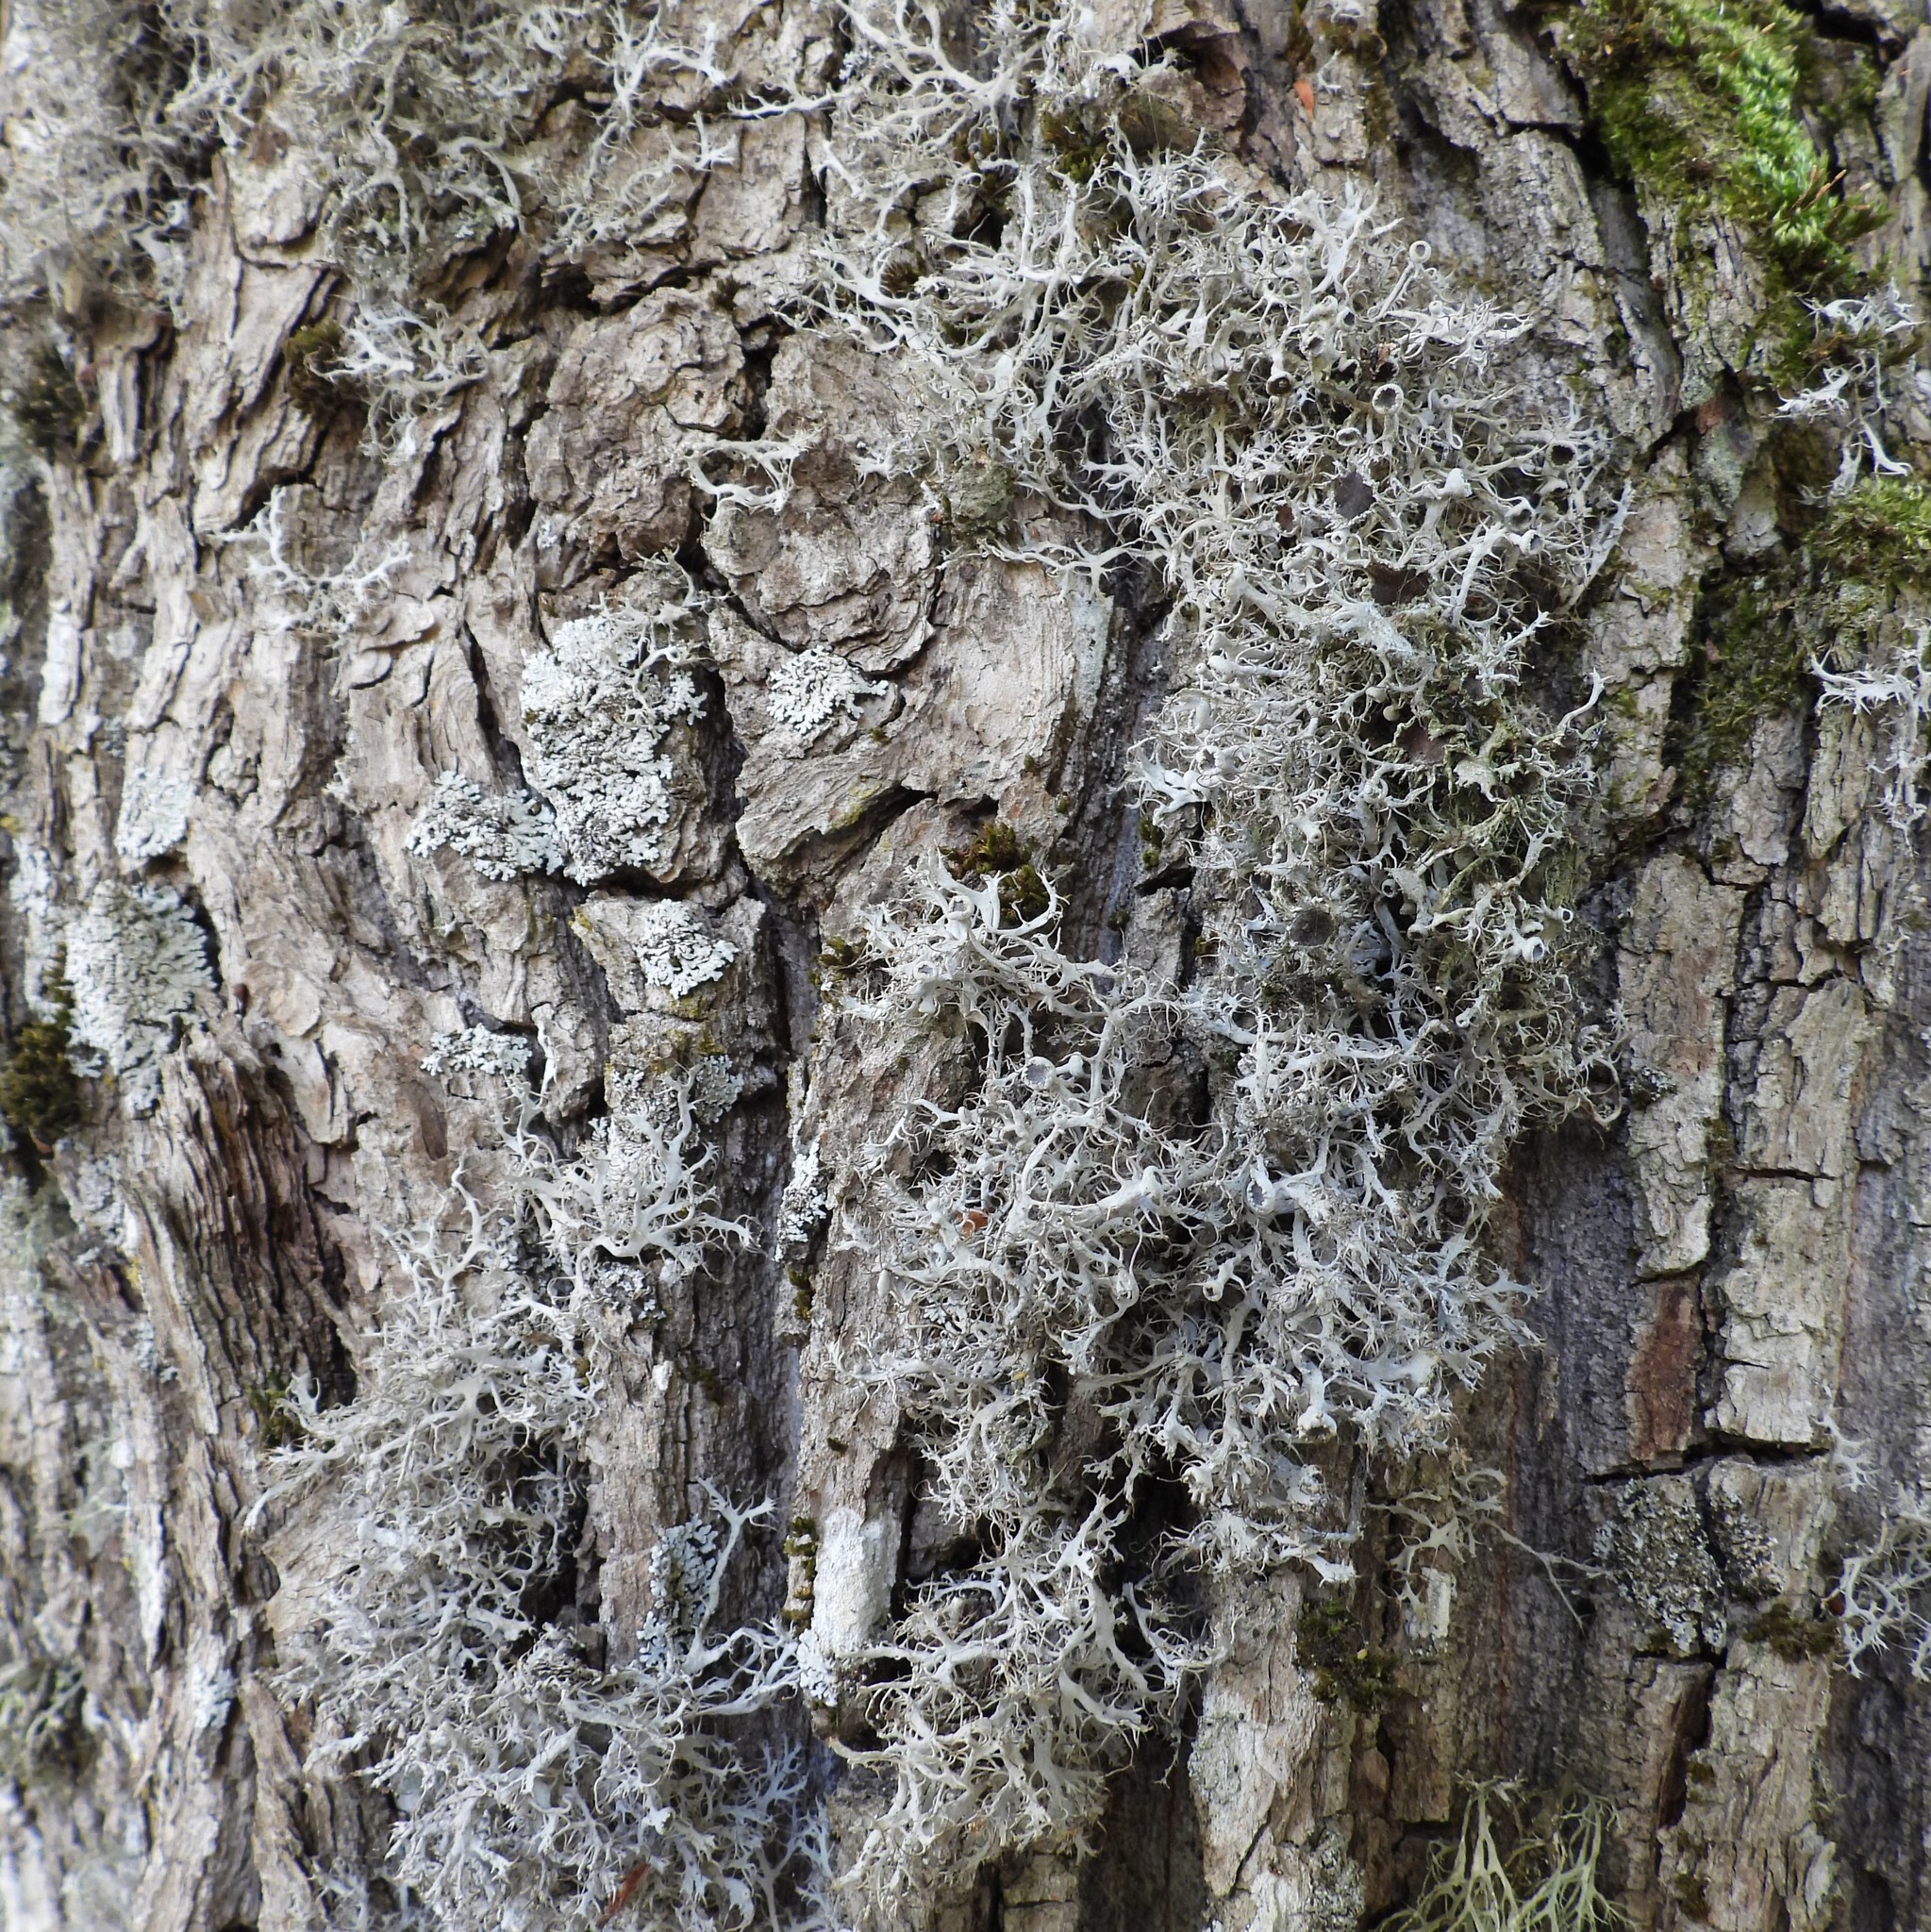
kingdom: Fungi
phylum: Ascomycota
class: Lecanoromycetes
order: Caliciales
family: Physciaceae
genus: Anaptychia
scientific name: Anaptychia ciliaris
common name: Great ciliated lichen
